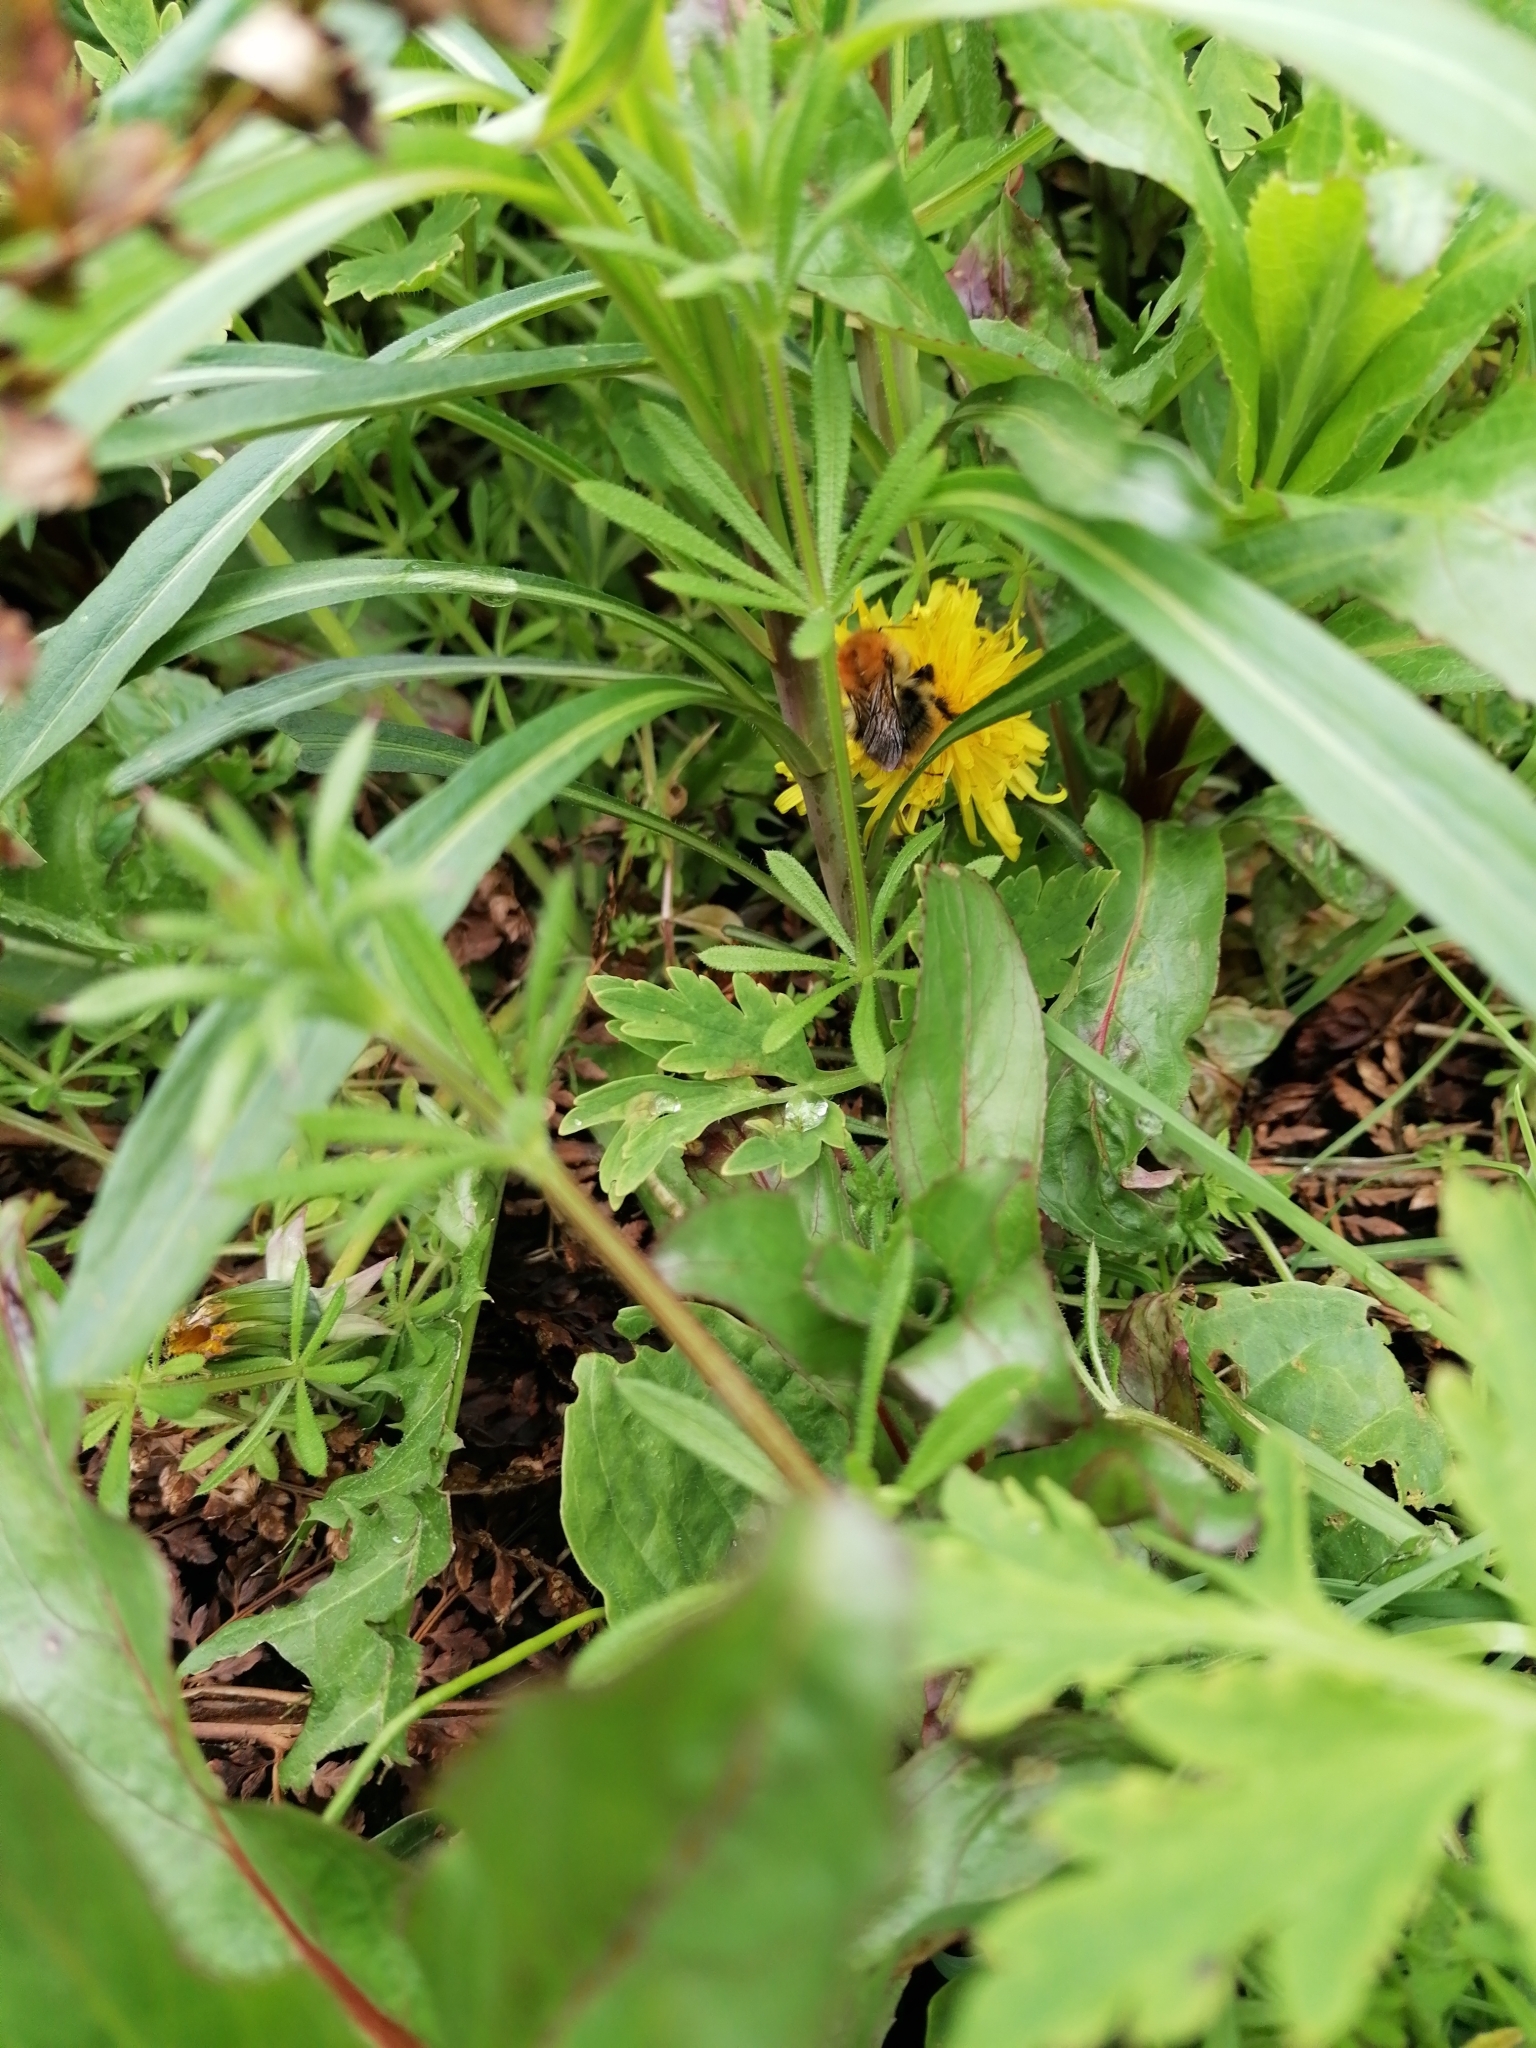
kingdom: Animalia
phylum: Arthropoda
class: Insecta
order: Hymenoptera
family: Apidae
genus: Bombus
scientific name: Bombus pascuorum
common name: Common carder bee
